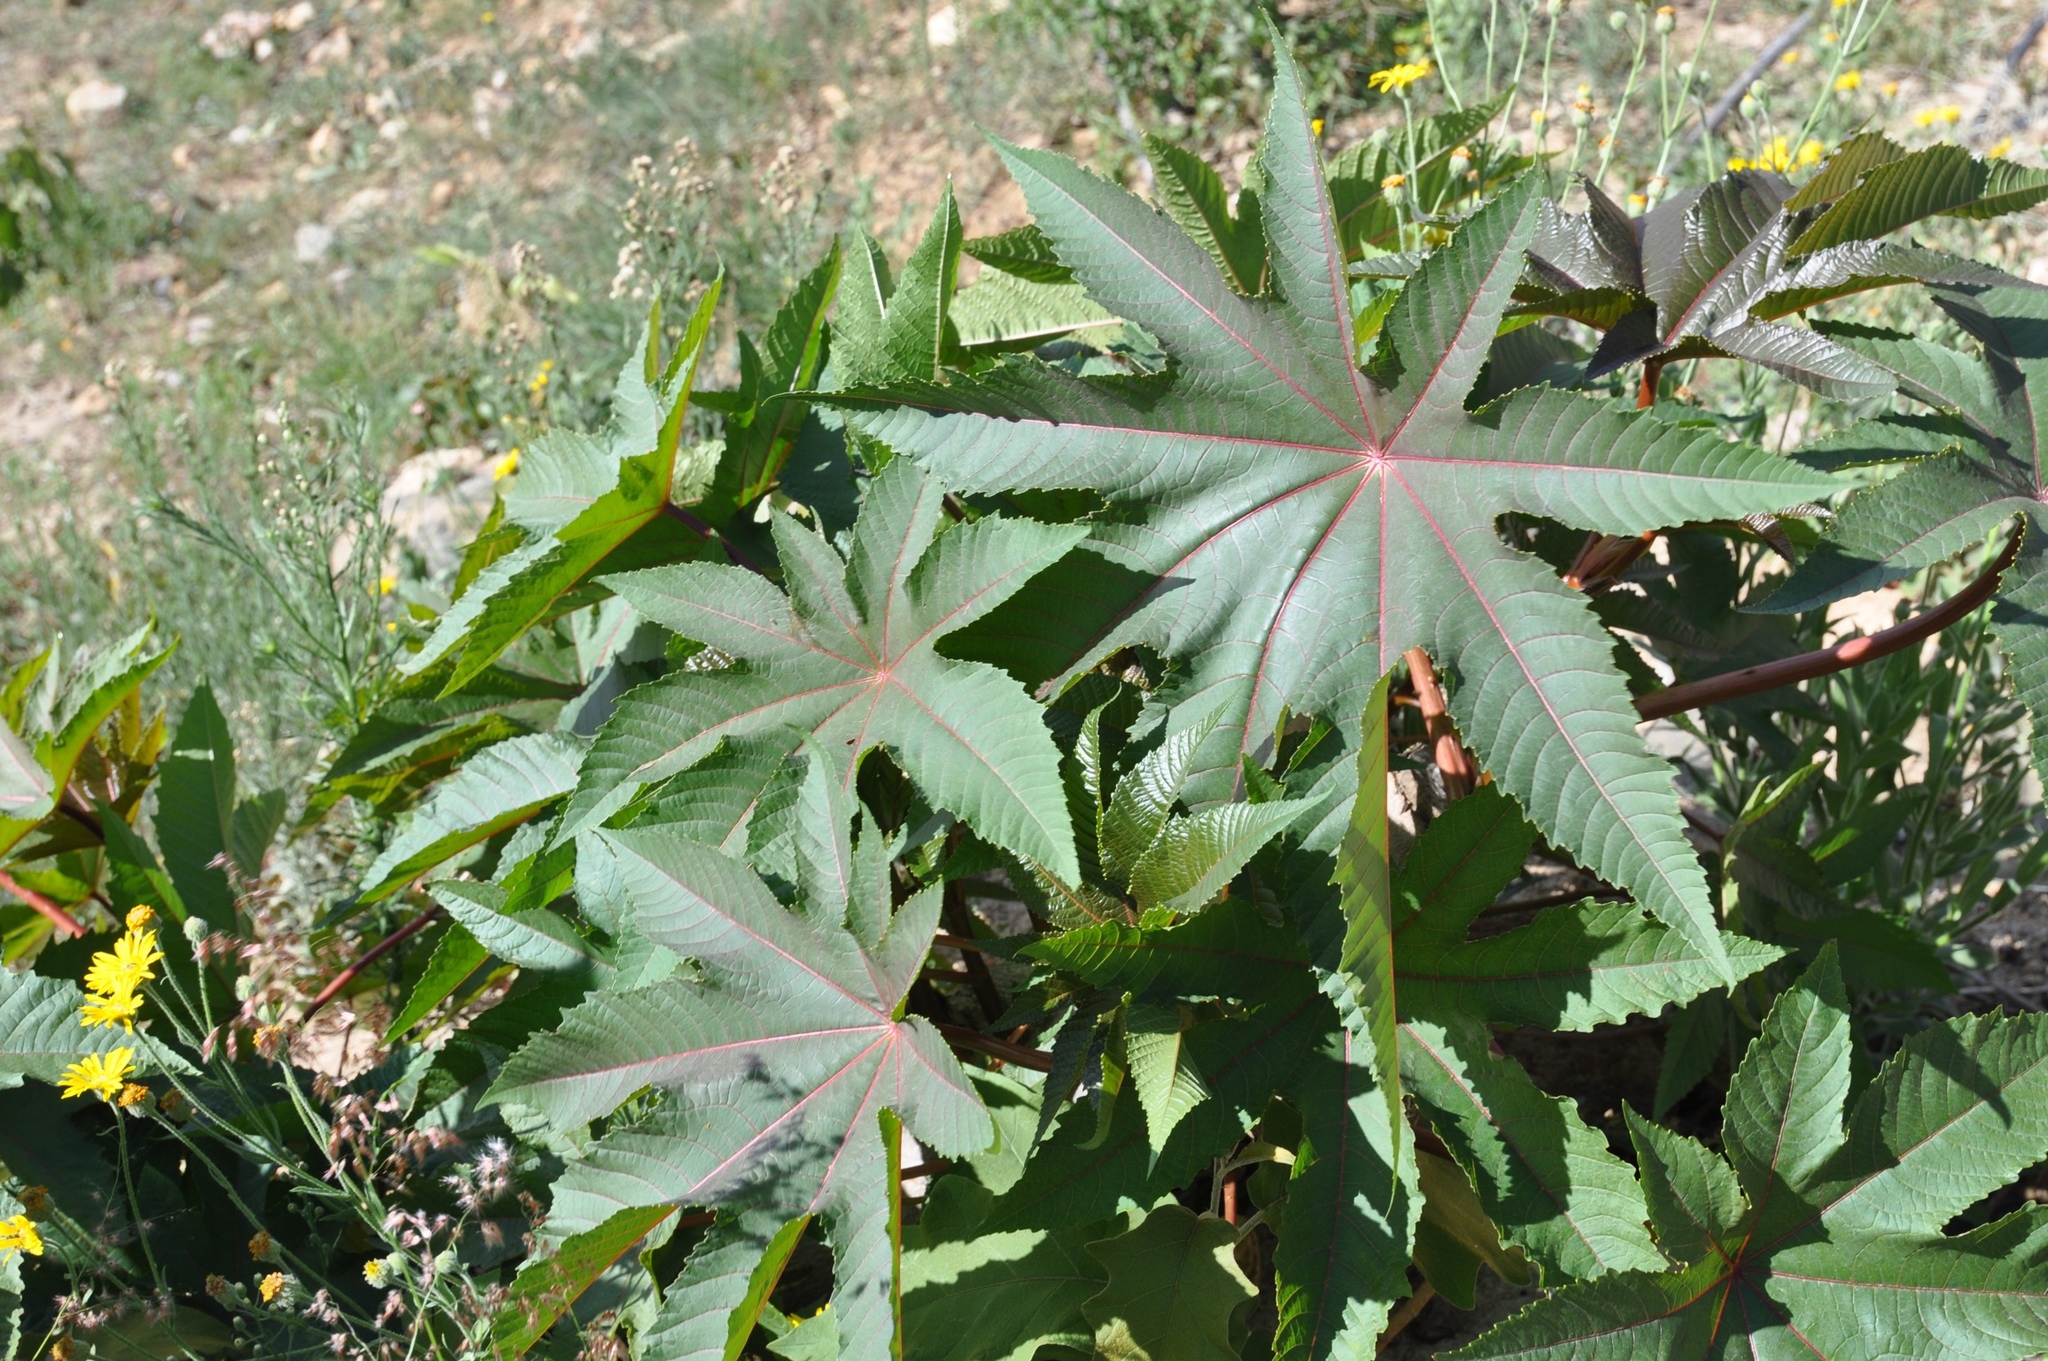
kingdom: Plantae
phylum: Tracheophyta
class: Magnoliopsida
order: Malpighiales
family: Euphorbiaceae
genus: Ricinus
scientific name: Ricinus communis
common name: Castor-oil-plant
